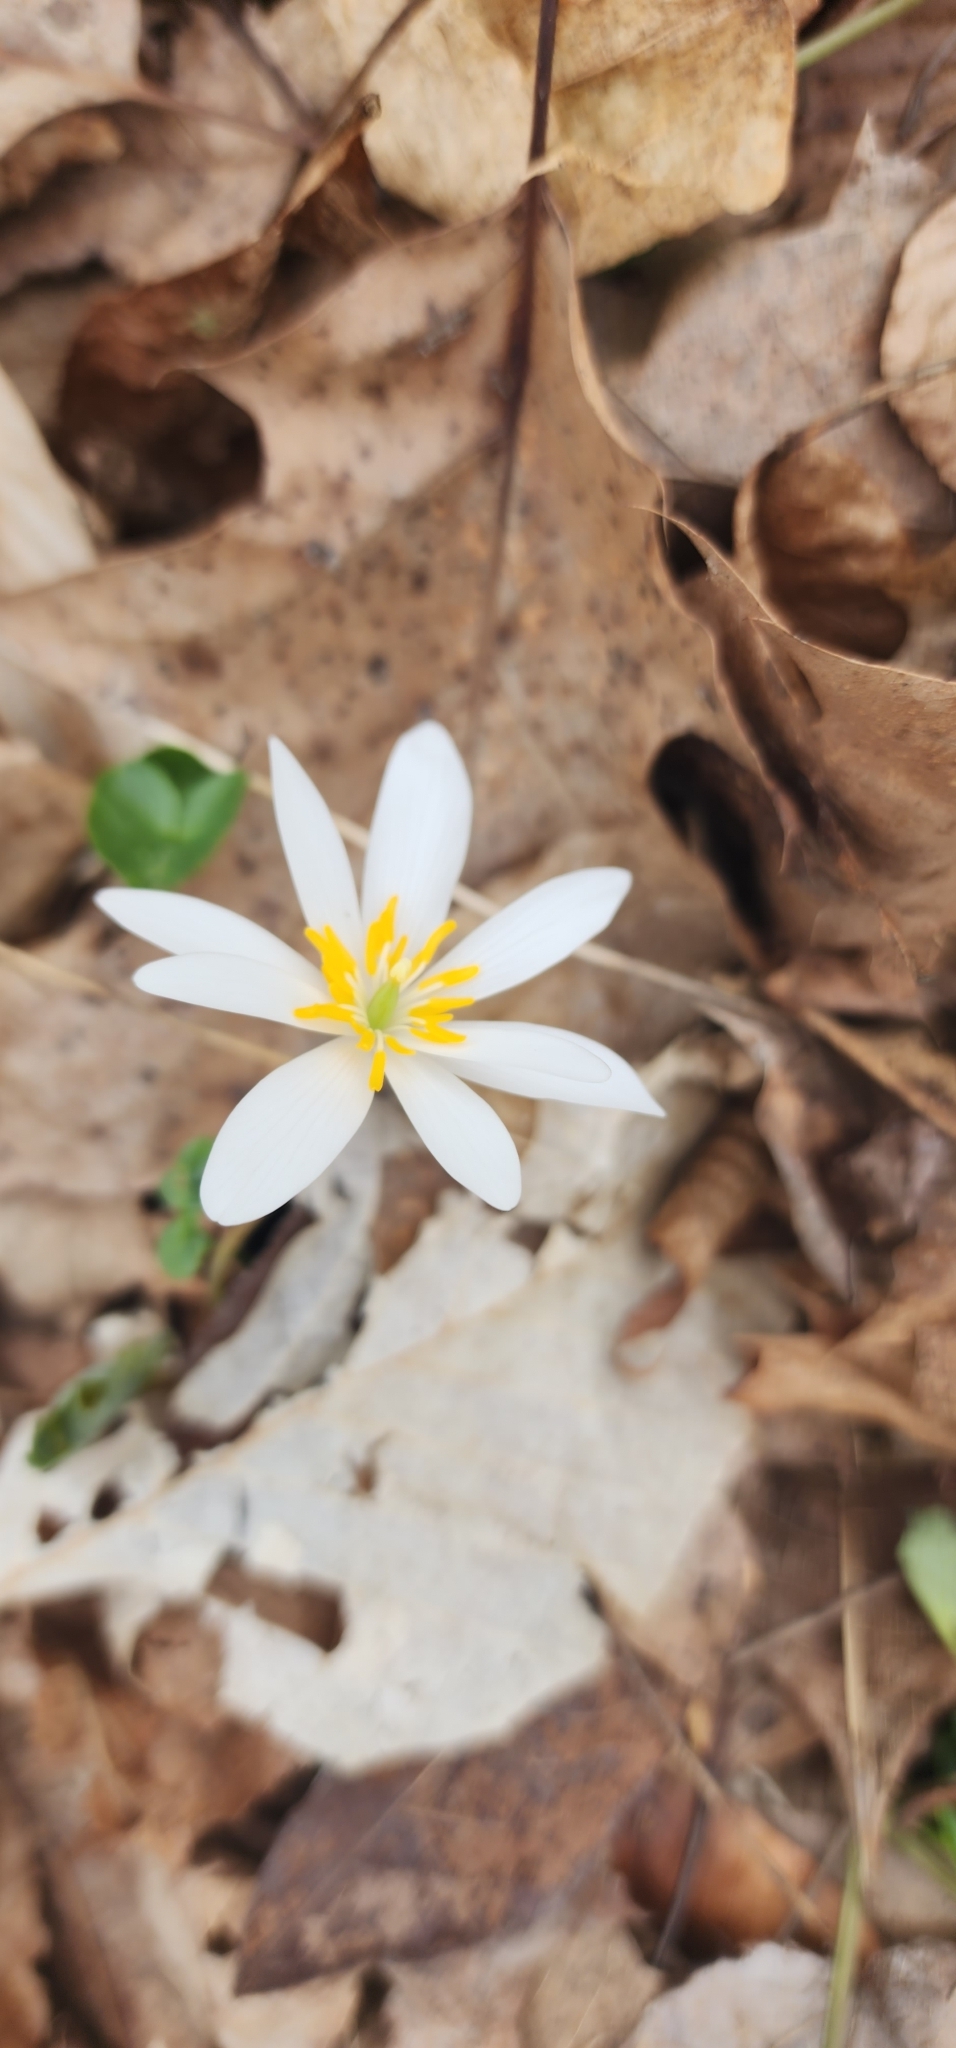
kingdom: Plantae
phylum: Tracheophyta
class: Magnoliopsida
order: Ranunculales
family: Papaveraceae
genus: Sanguinaria
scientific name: Sanguinaria canadensis
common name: Bloodroot
